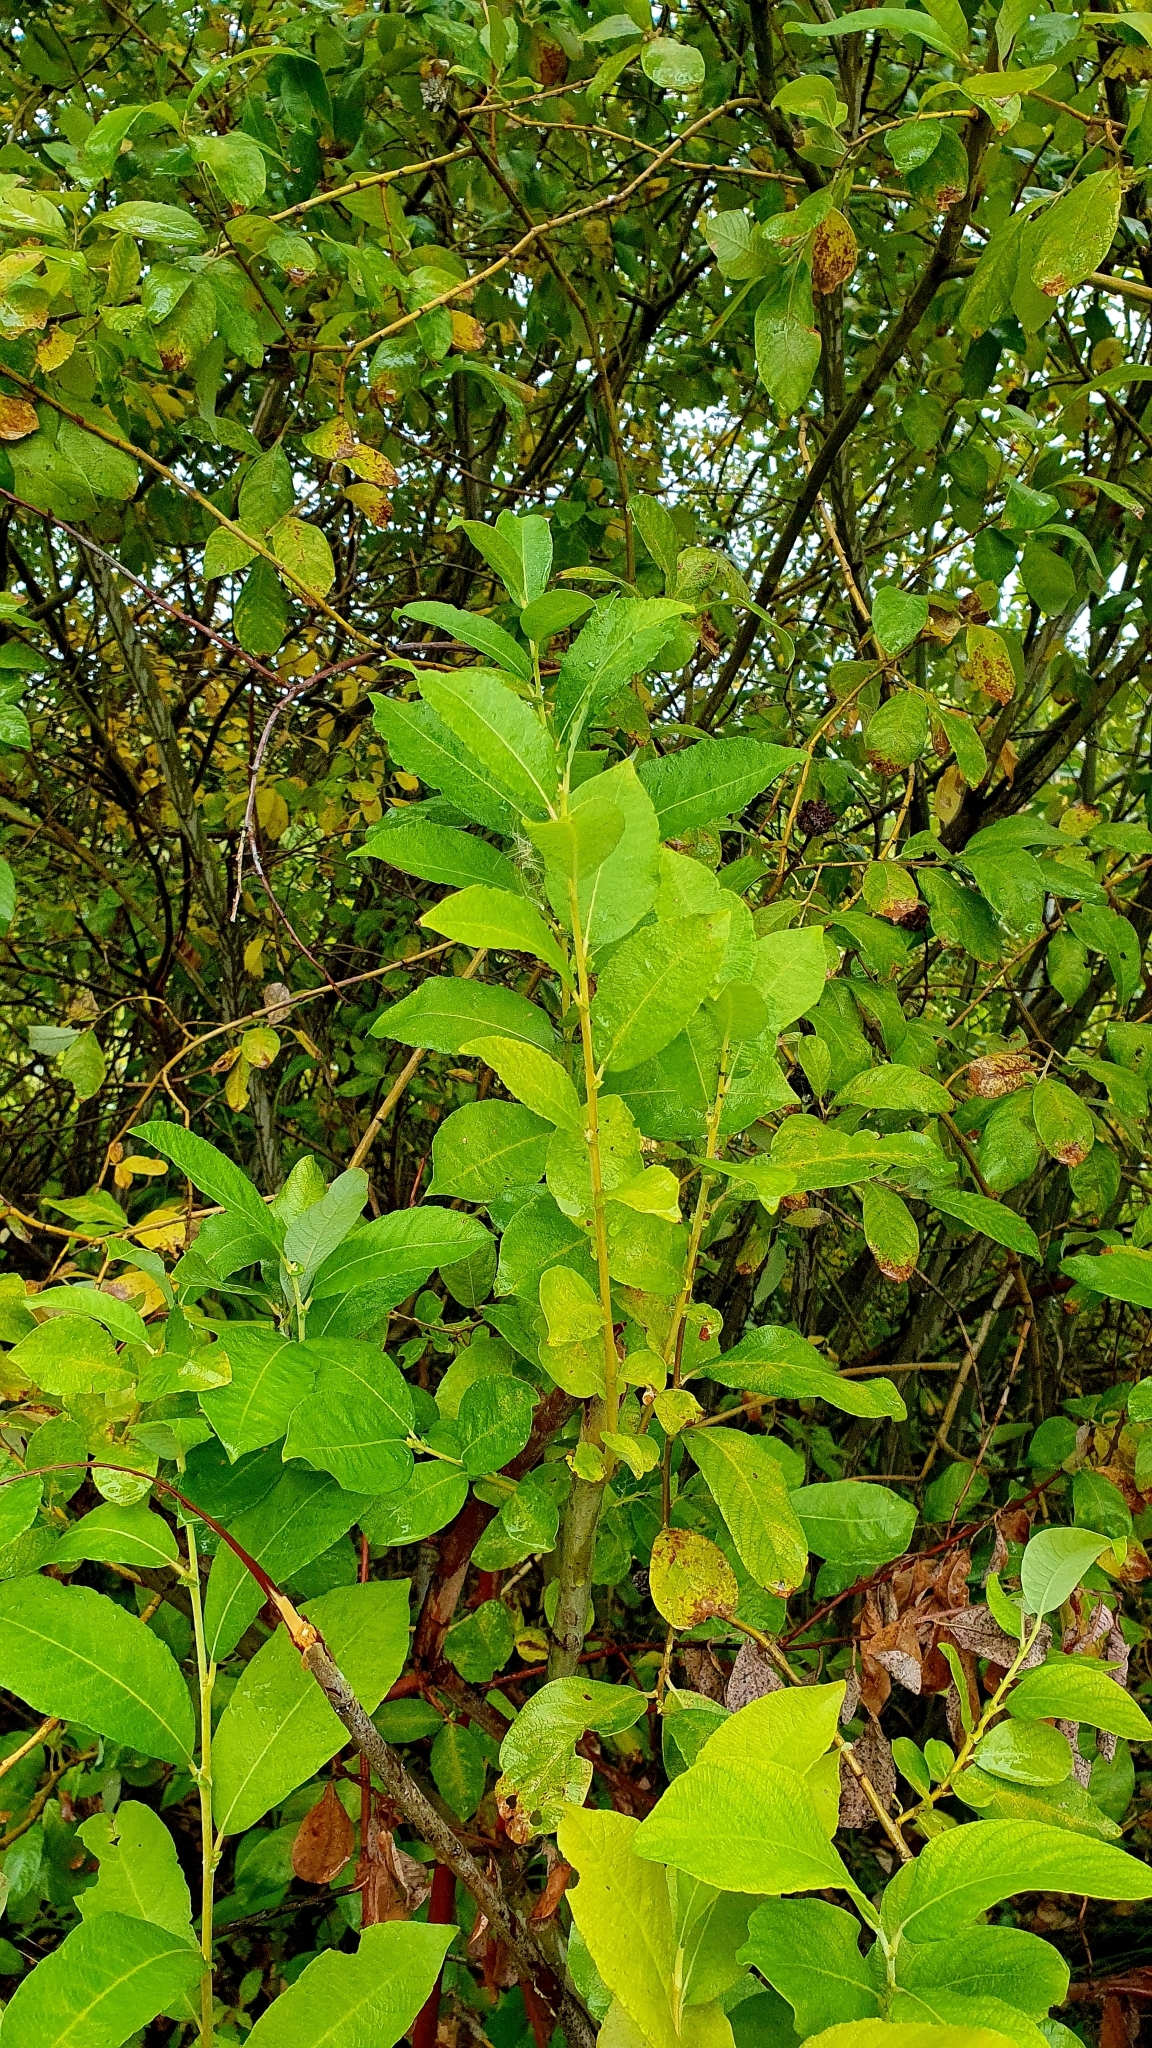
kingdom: Plantae
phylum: Tracheophyta
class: Magnoliopsida
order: Malpighiales
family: Salicaceae
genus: Salix
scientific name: Salix caprea
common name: Goat willow
